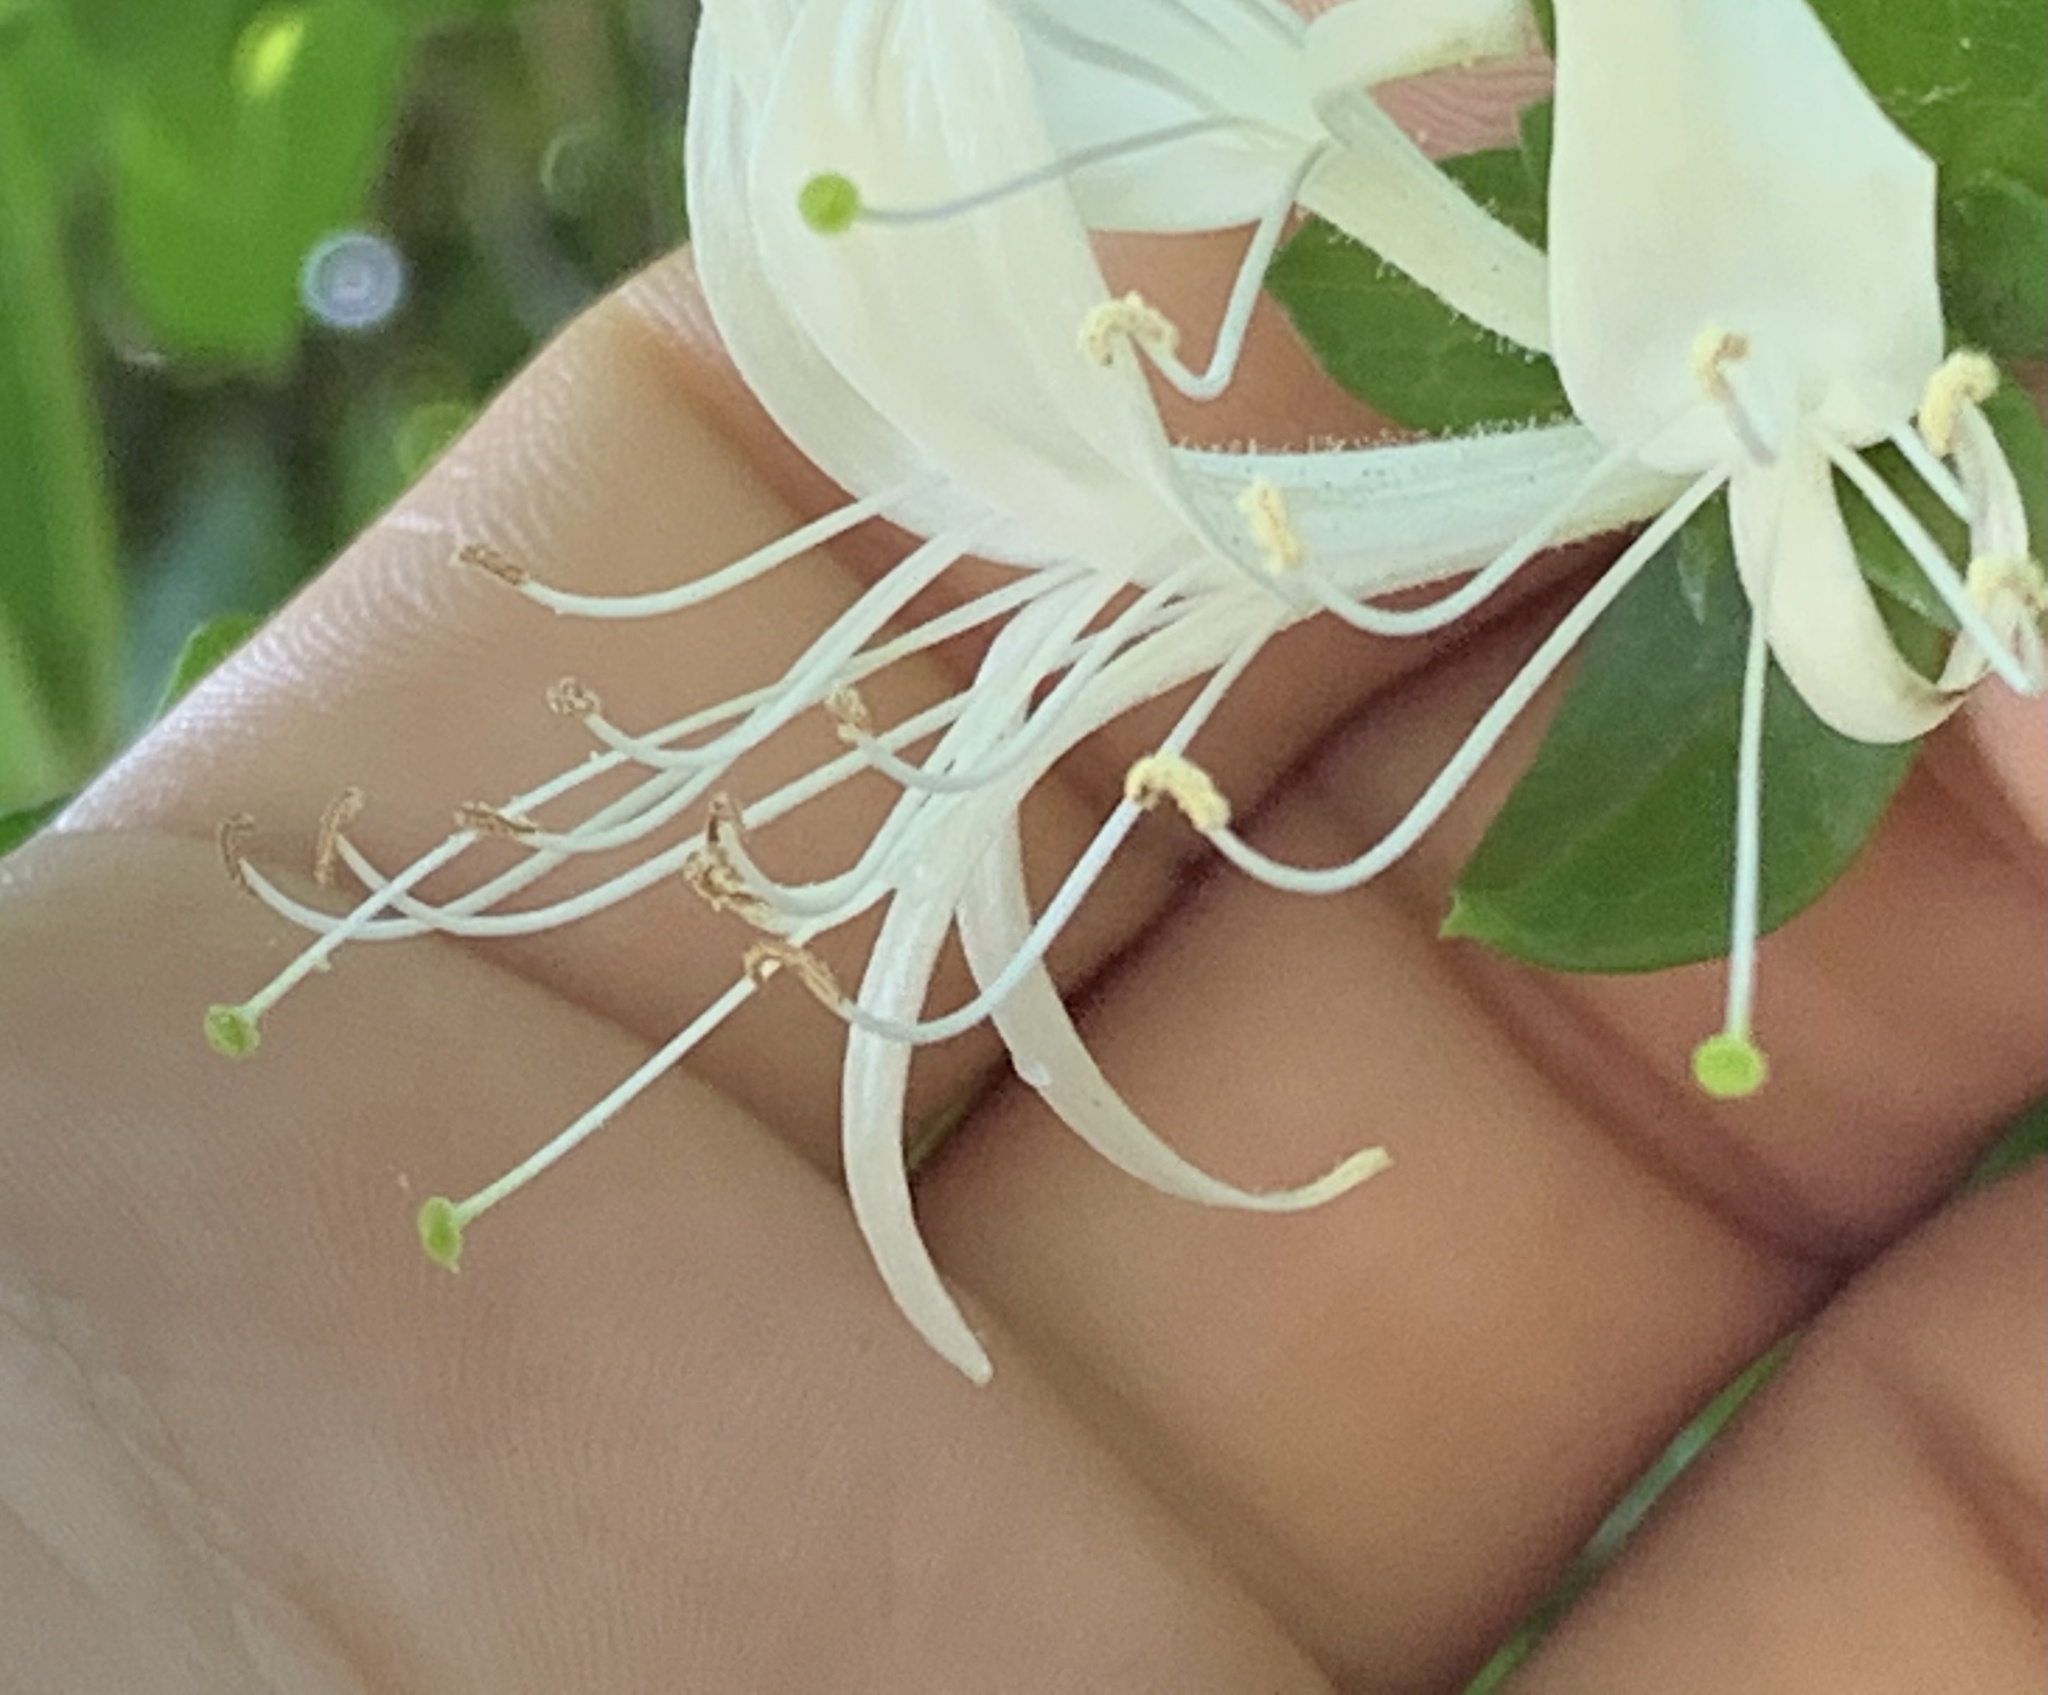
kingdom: Plantae
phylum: Tracheophyta
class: Magnoliopsida
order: Dipsacales
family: Caprifoliaceae
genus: Lonicera
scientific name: Lonicera japonica
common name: Japanese honeysuckle
